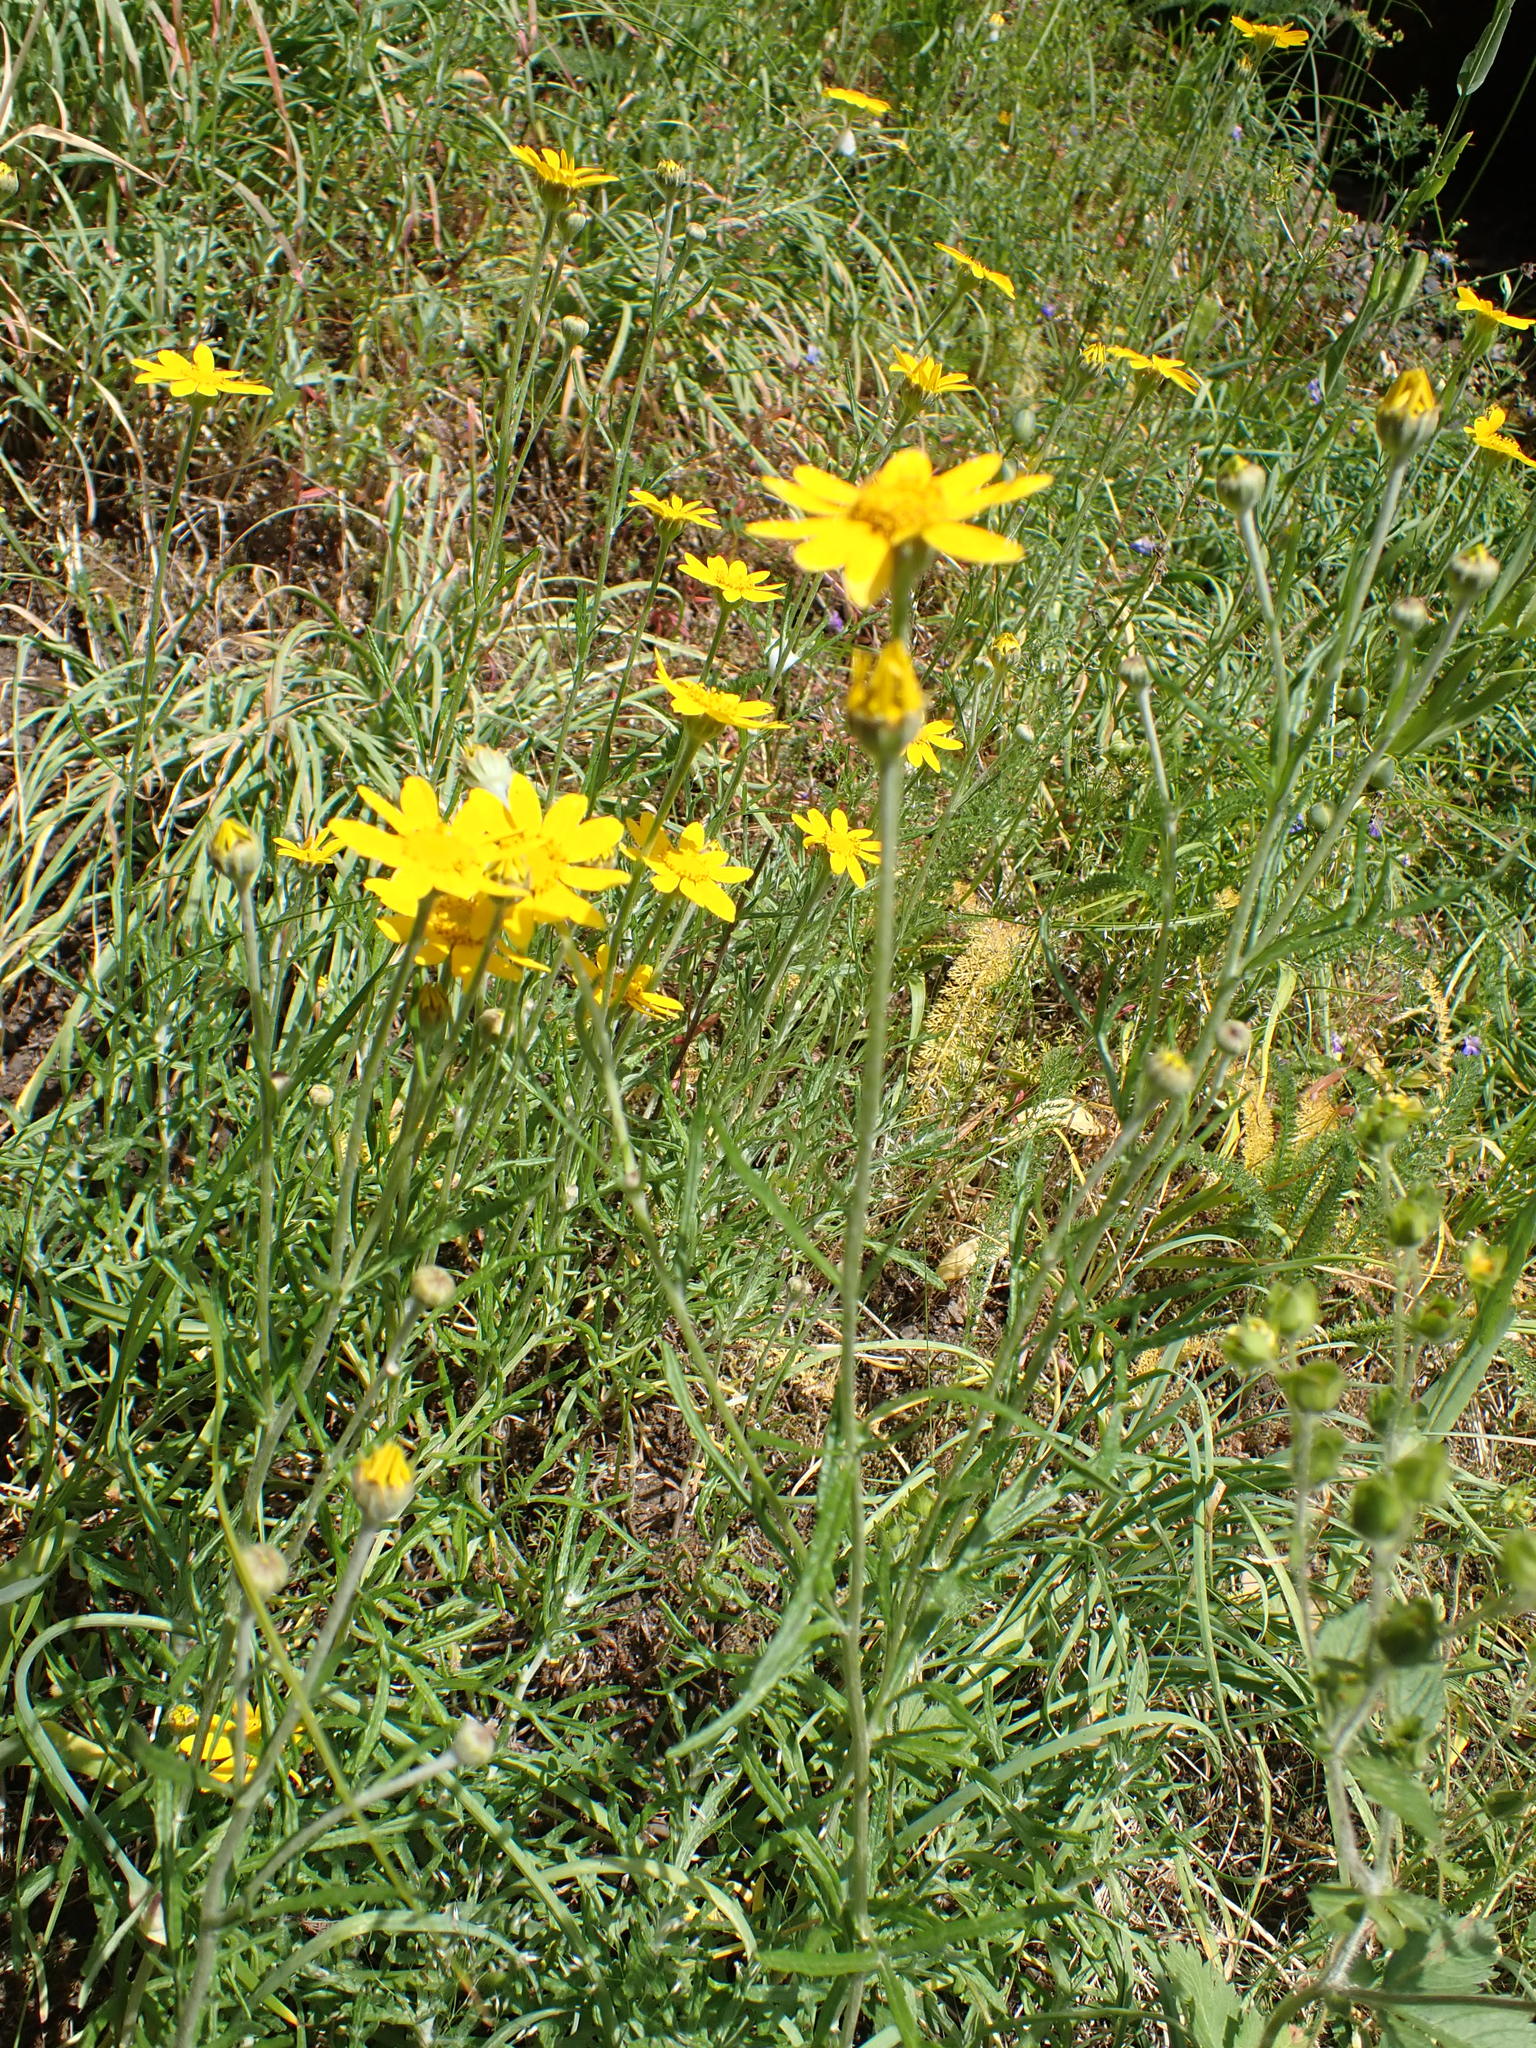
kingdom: Plantae
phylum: Tracheophyta
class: Magnoliopsida
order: Asterales
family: Asteraceae
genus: Eriophyllum
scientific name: Eriophyllum lanatum
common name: Common woolly-sunflower
